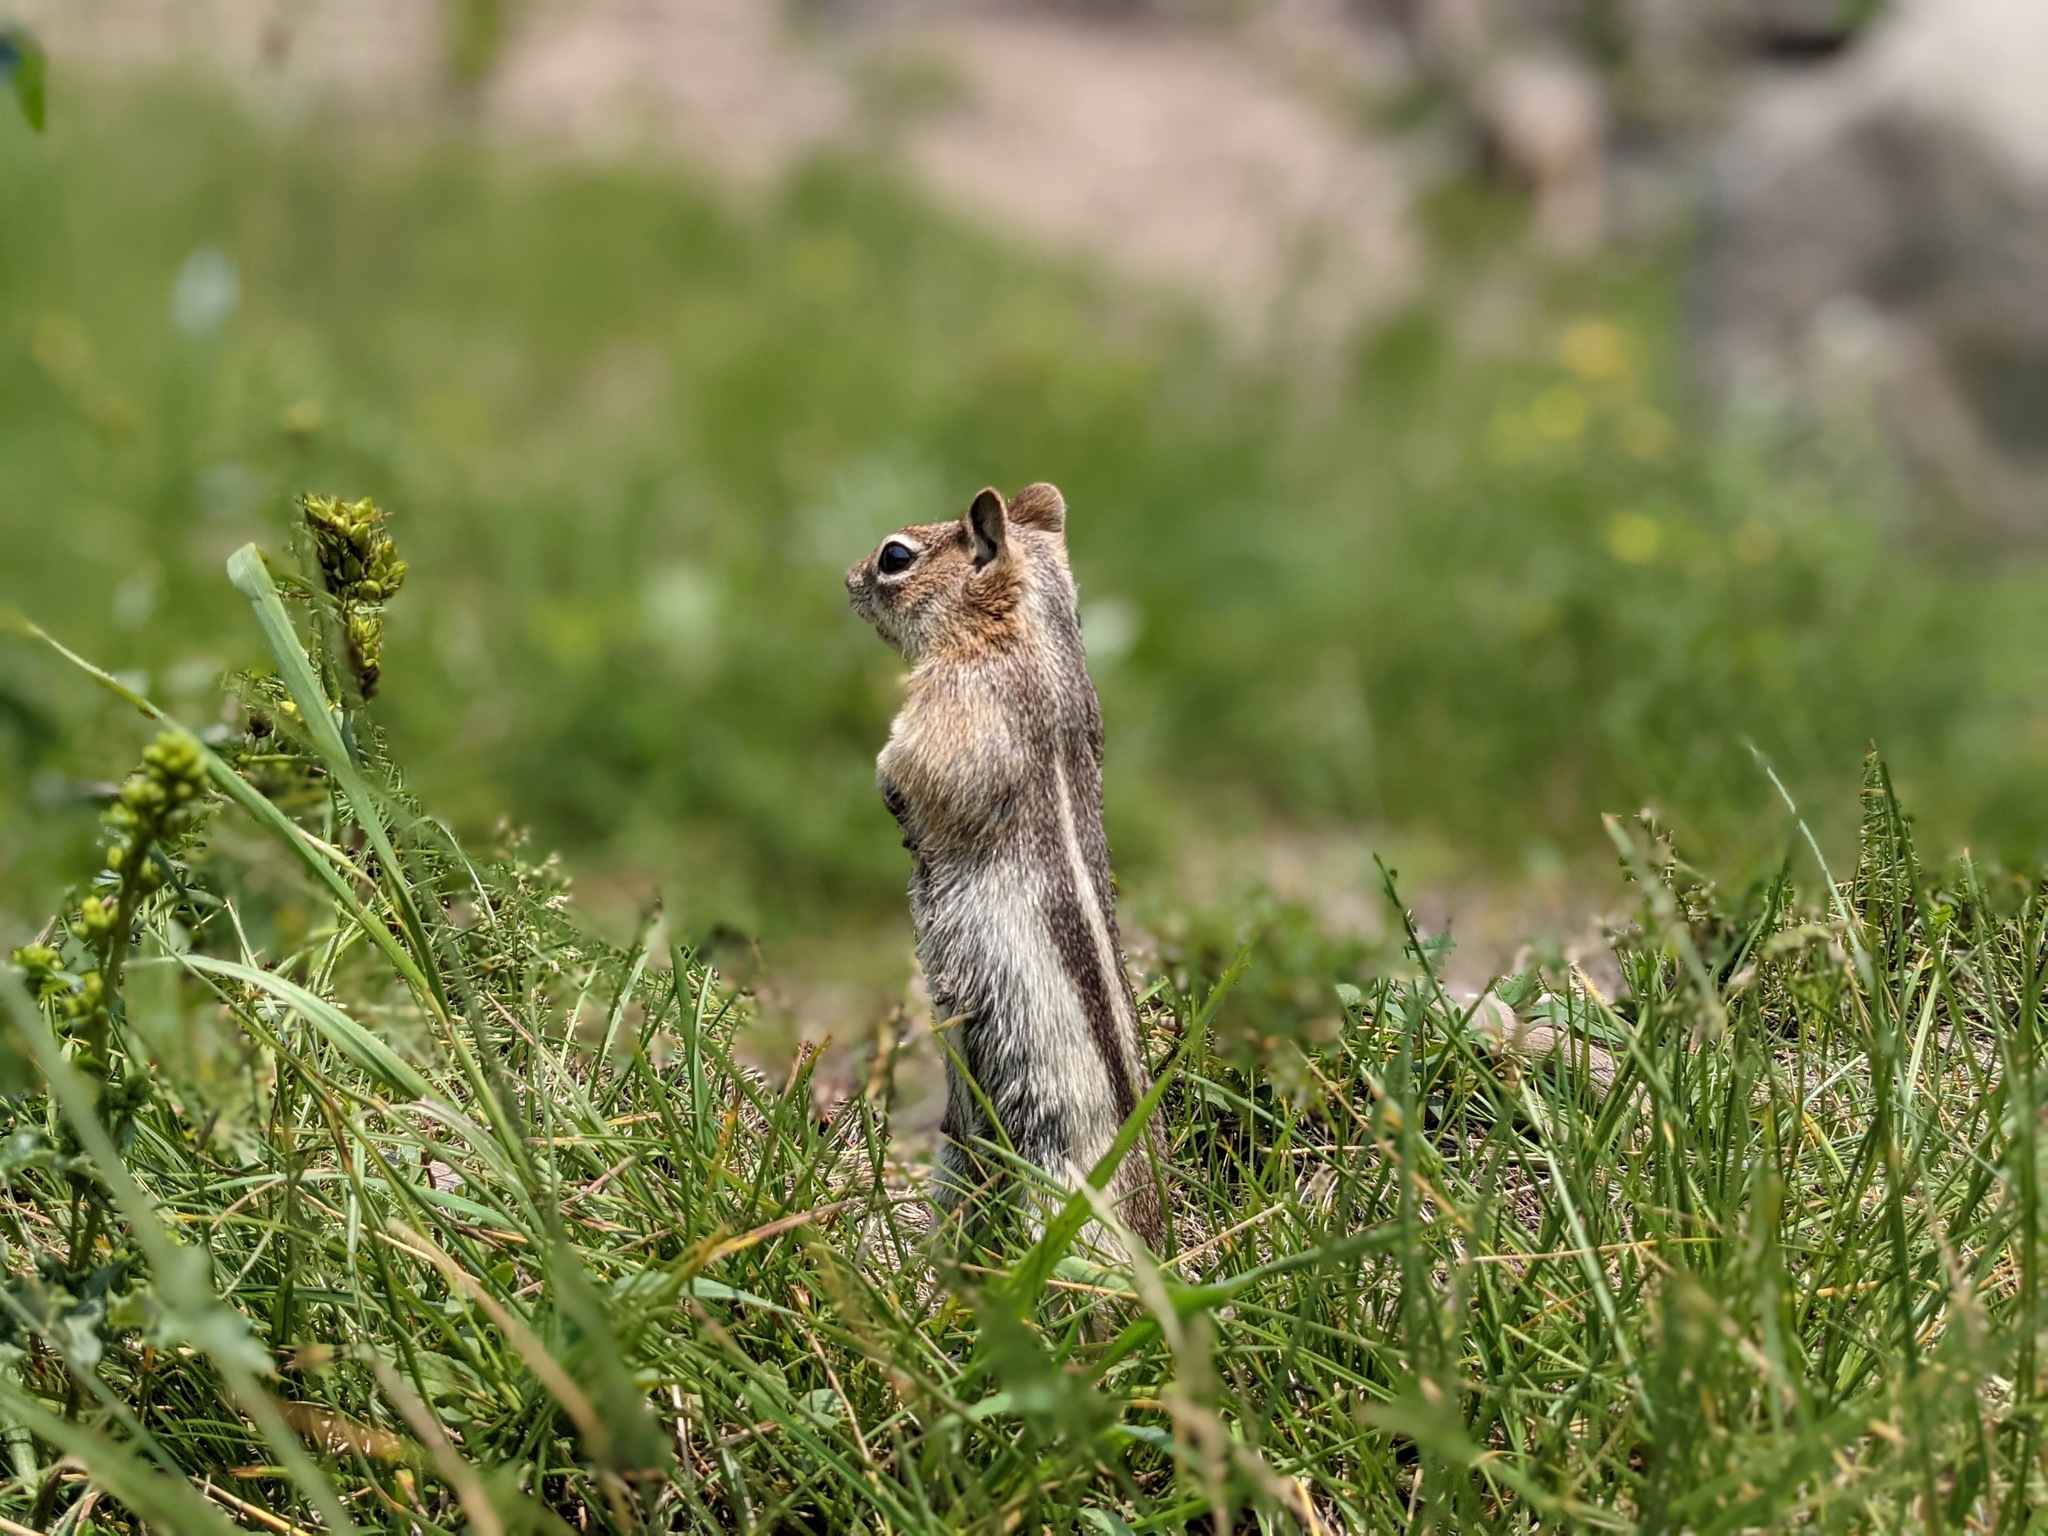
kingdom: Animalia
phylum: Chordata
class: Mammalia
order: Rodentia
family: Sciuridae
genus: Callospermophilus
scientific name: Callospermophilus lateralis
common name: Golden-mantled ground squirrel
